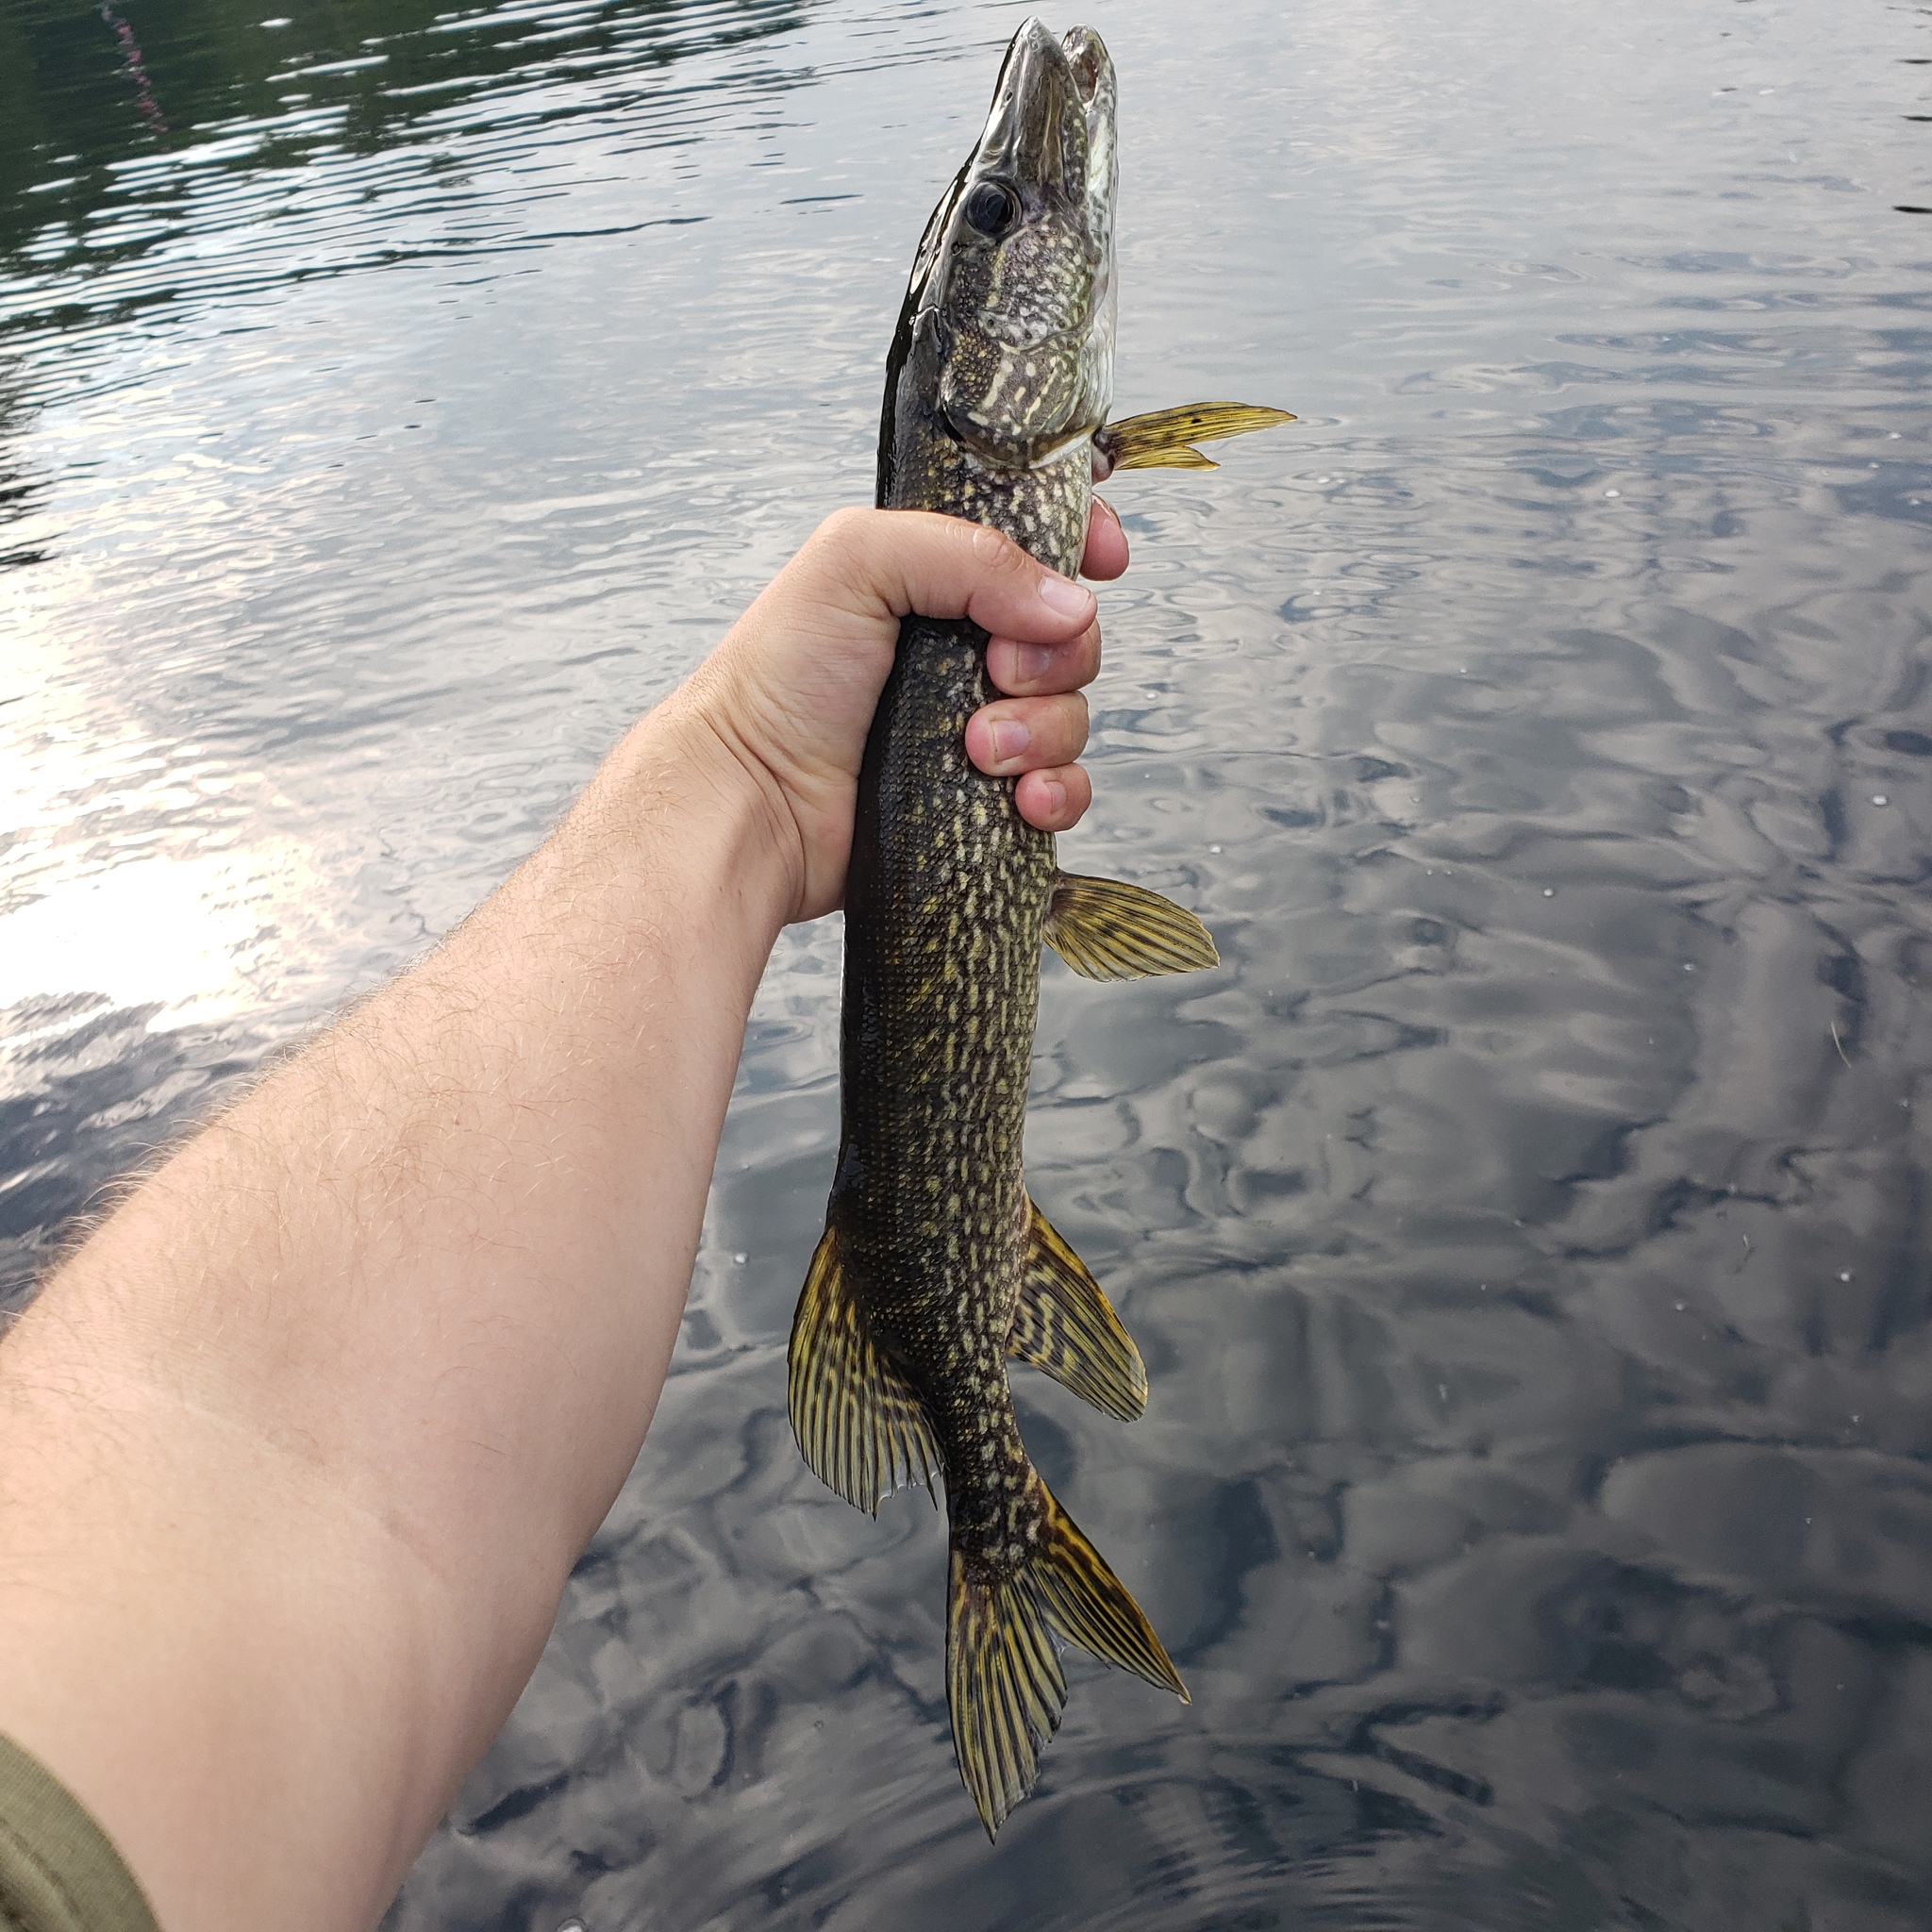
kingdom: Animalia
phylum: Chordata
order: Esociformes
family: Esocidae
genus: Esox
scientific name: Esox lucius
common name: Northern pike
